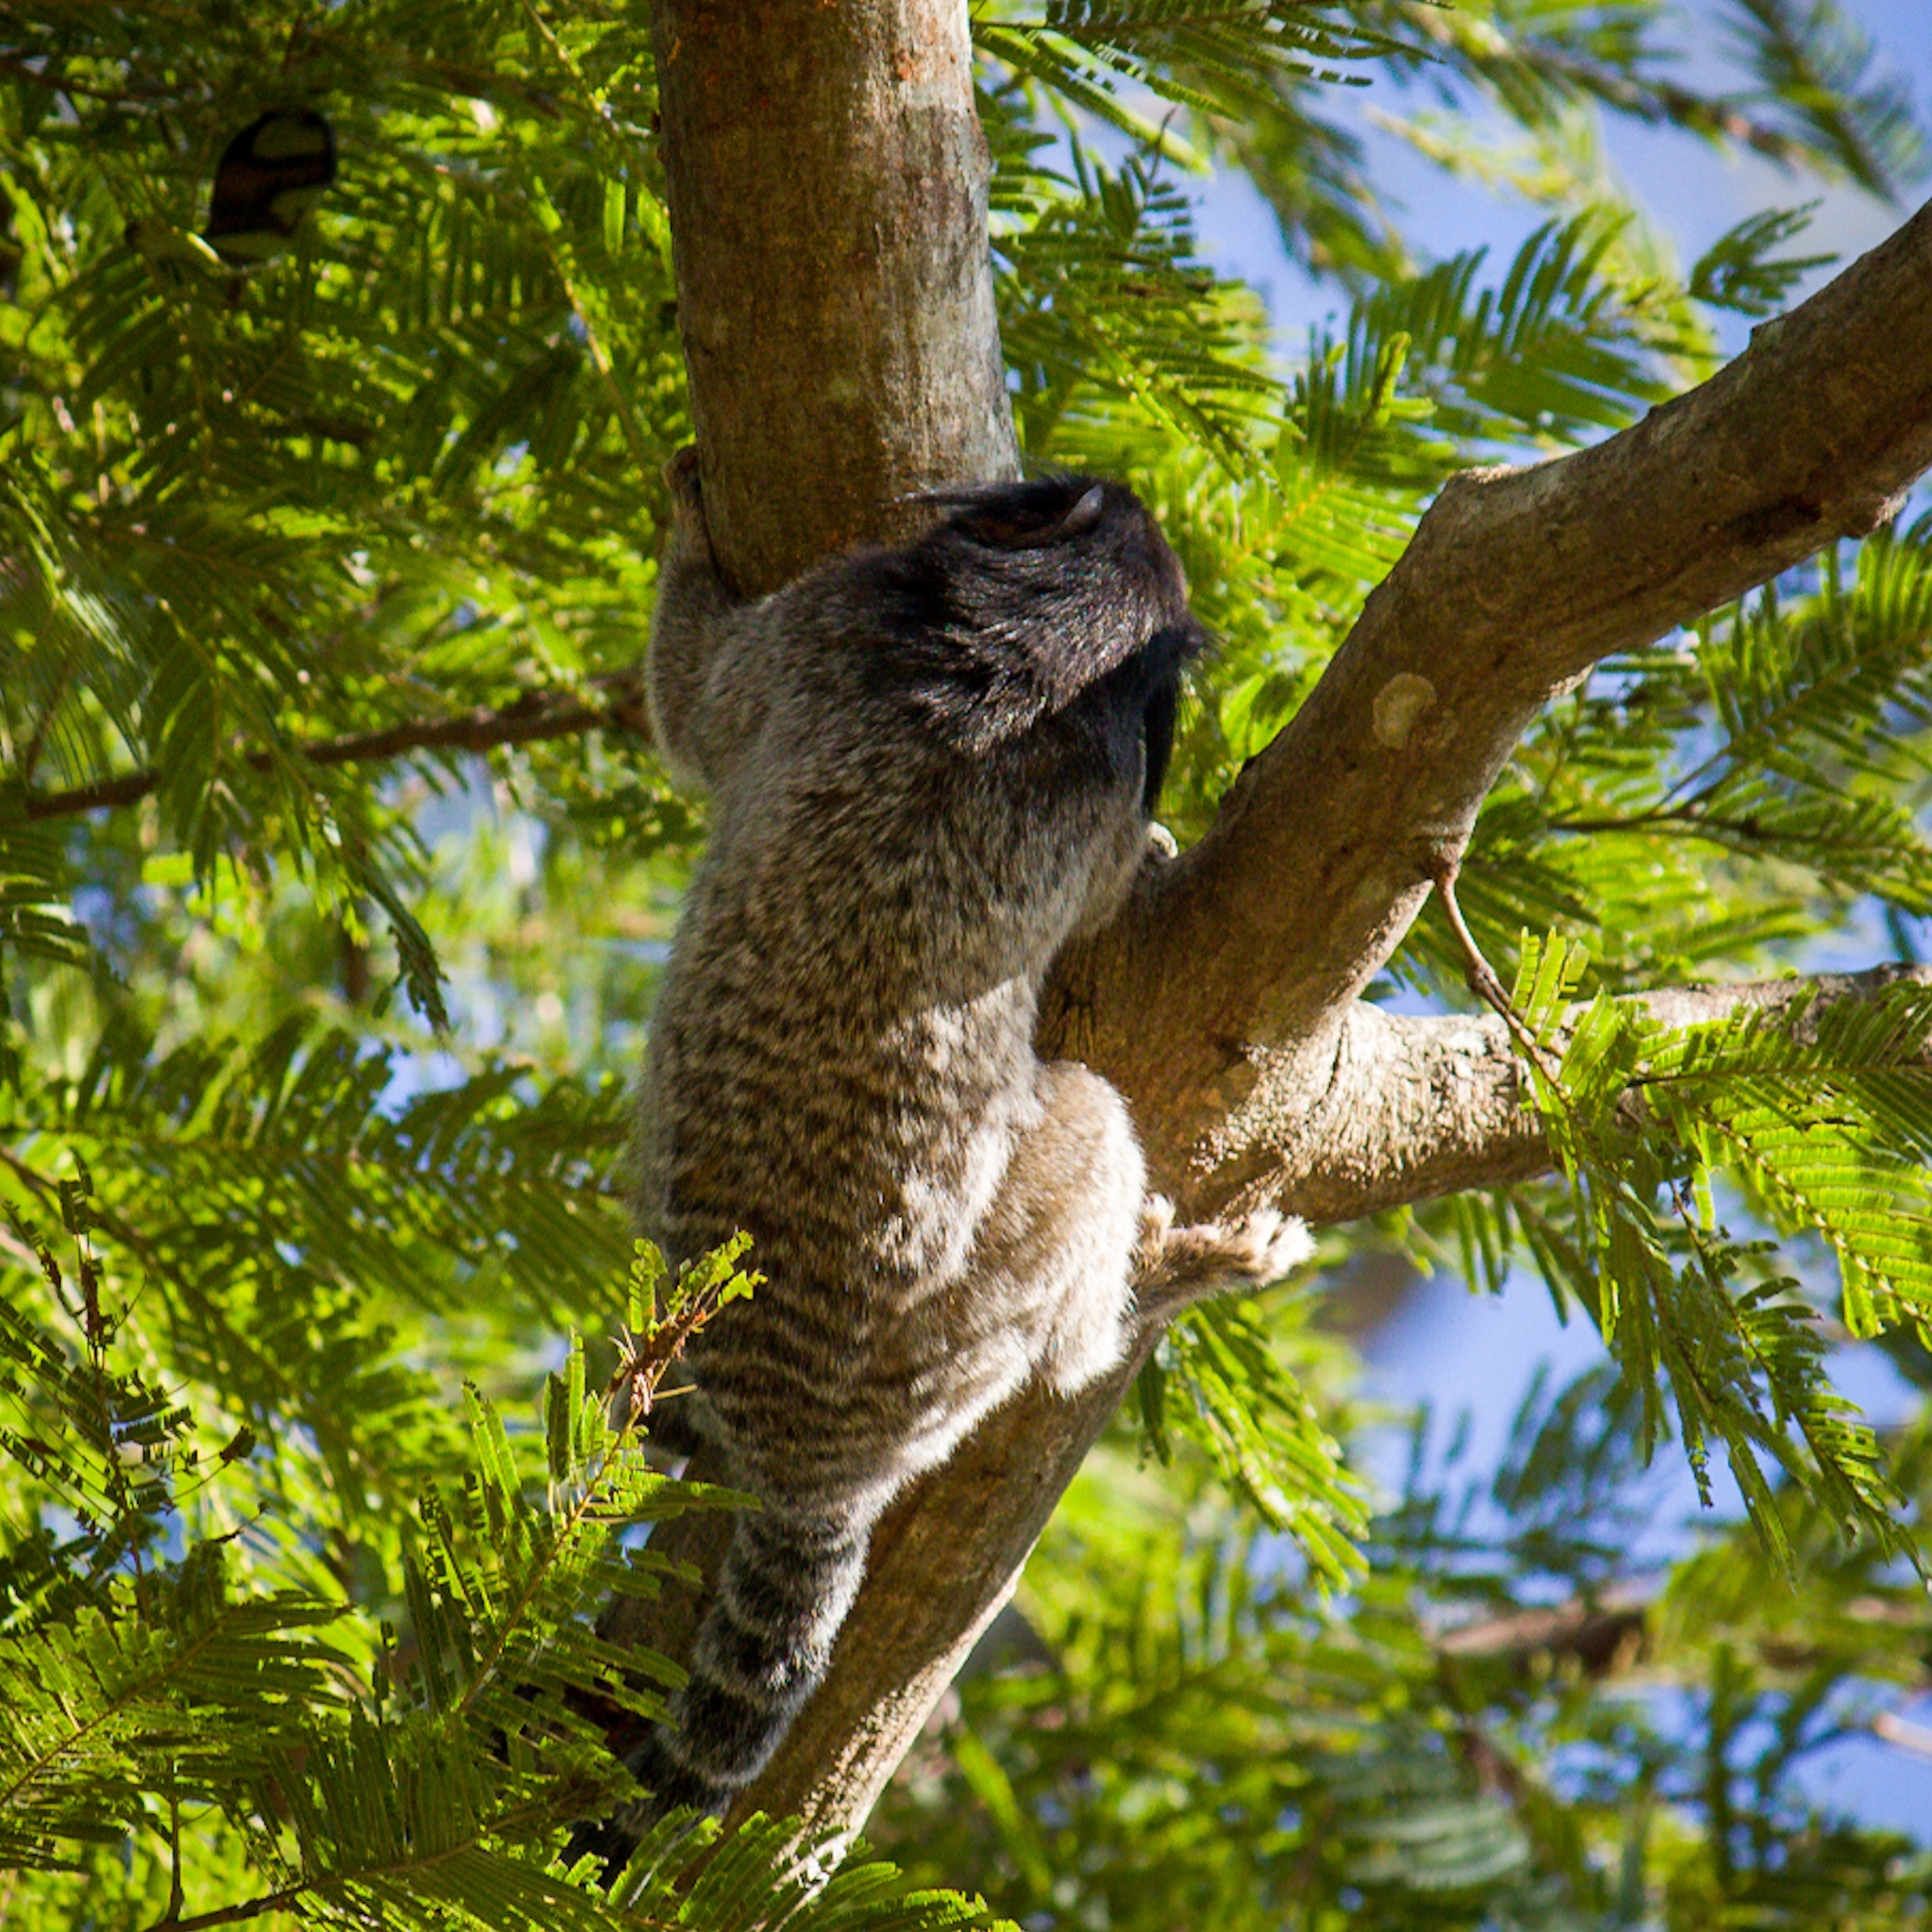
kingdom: Animalia
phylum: Chordata
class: Mammalia
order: Primates
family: Callitrichidae
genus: Callithrix
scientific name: Callithrix penicillata
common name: Black-tufted marmoset
